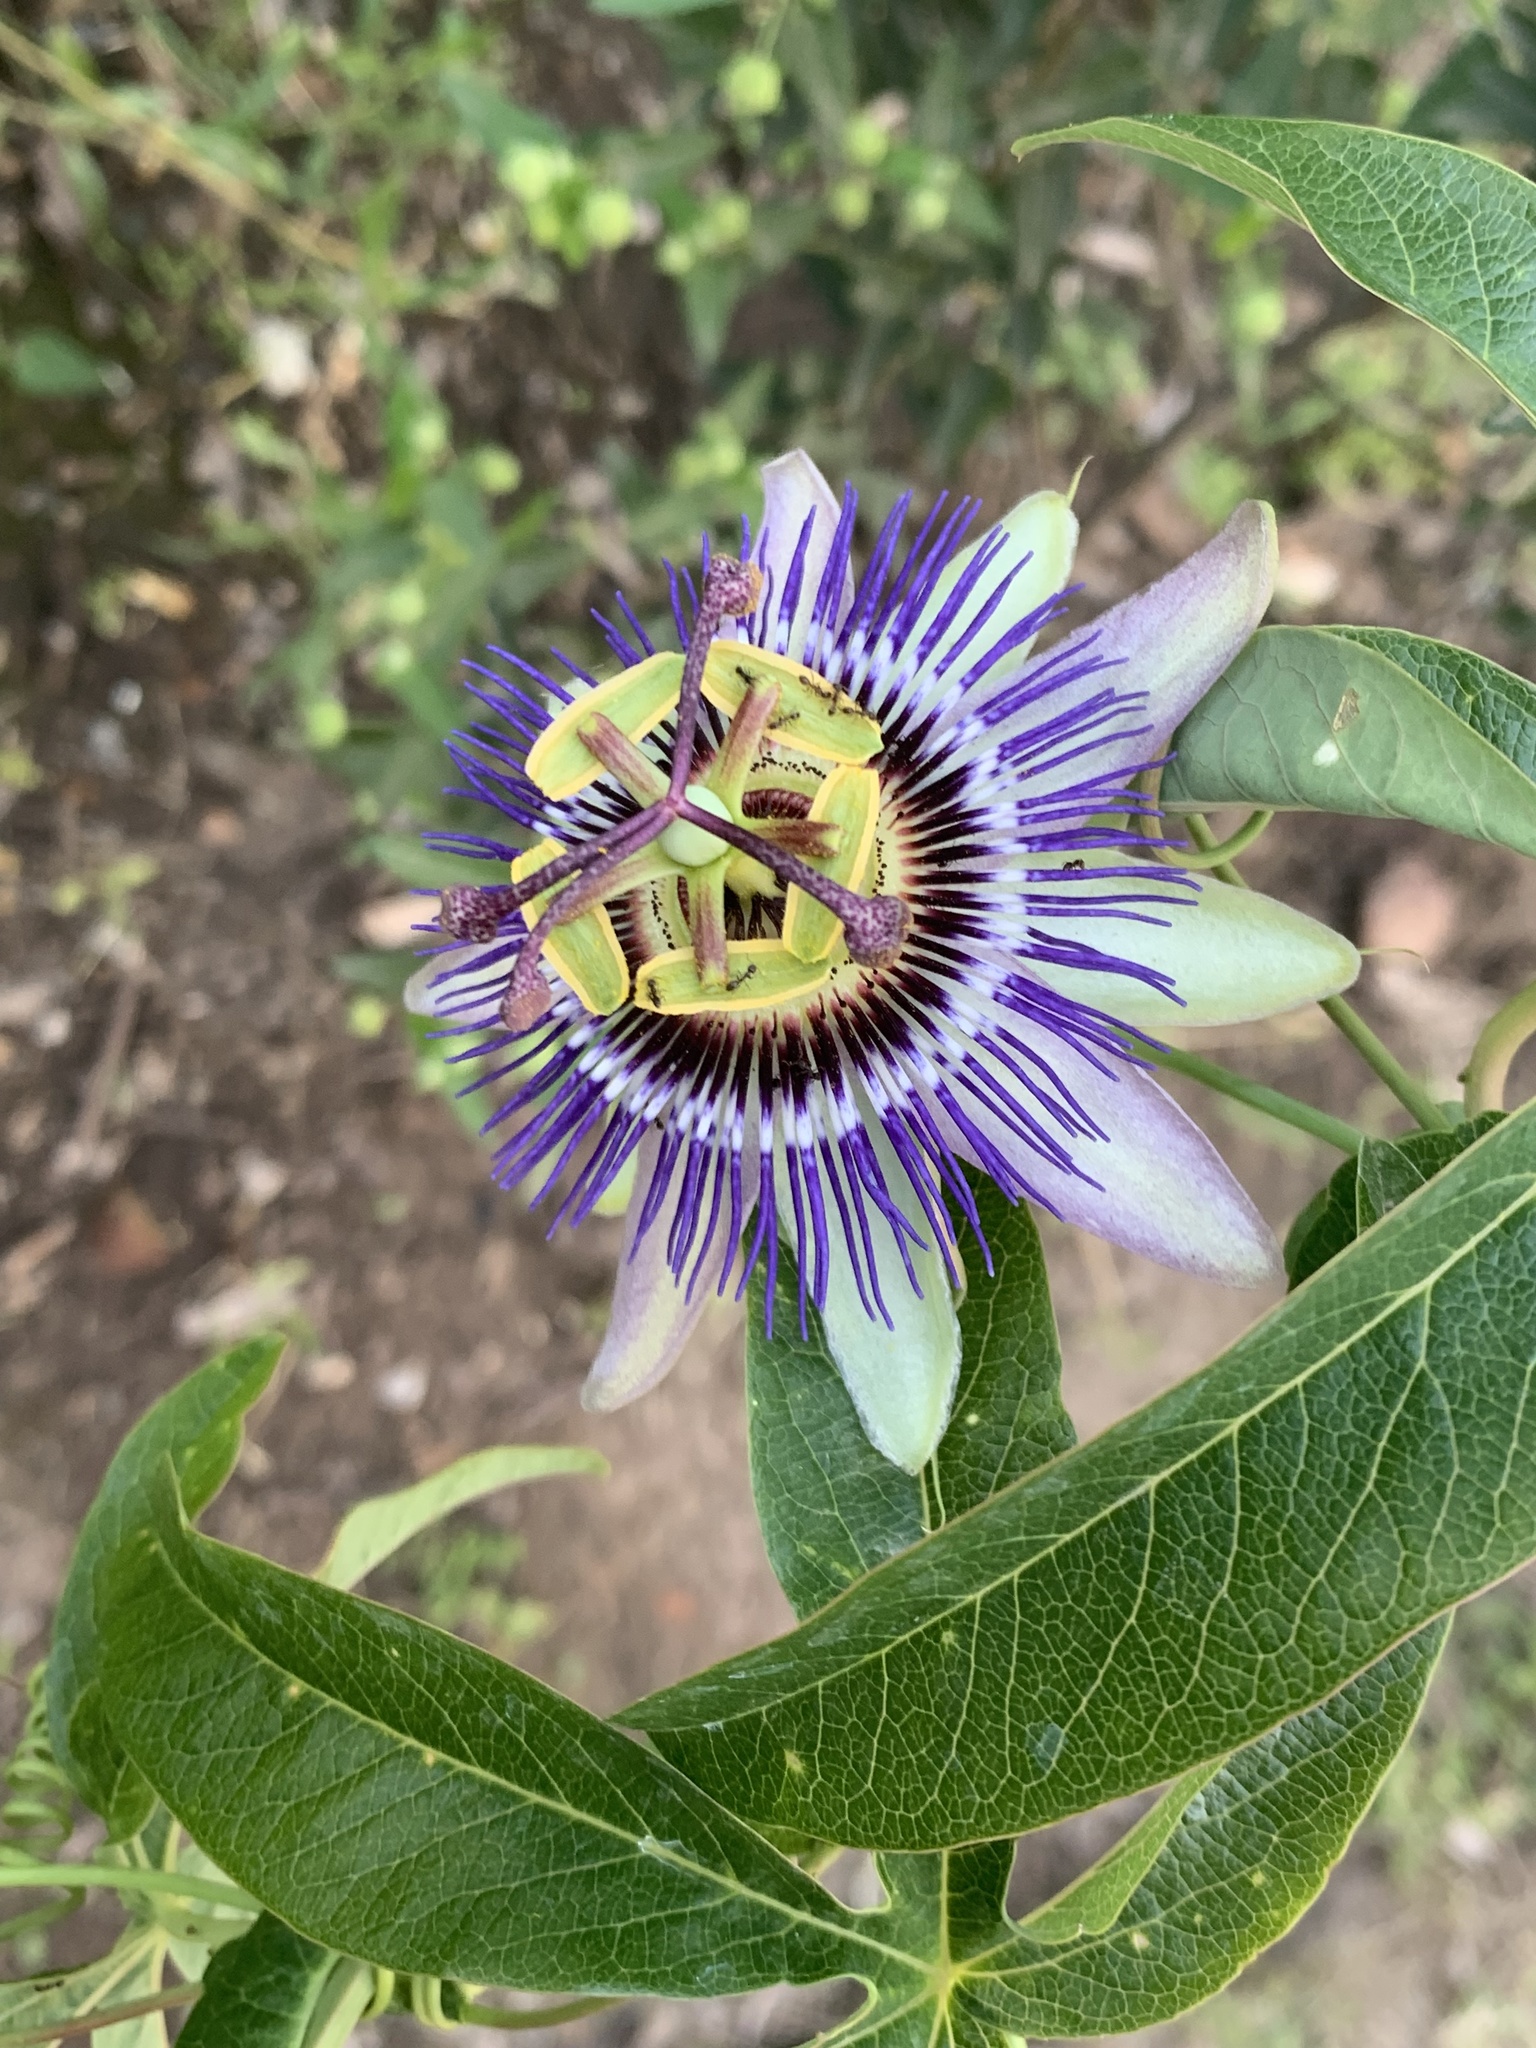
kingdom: Plantae
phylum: Tracheophyta
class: Magnoliopsida
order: Malpighiales
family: Passifloraceae
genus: Passiflora
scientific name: Passiflora caerulea
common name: Blue passionflower
